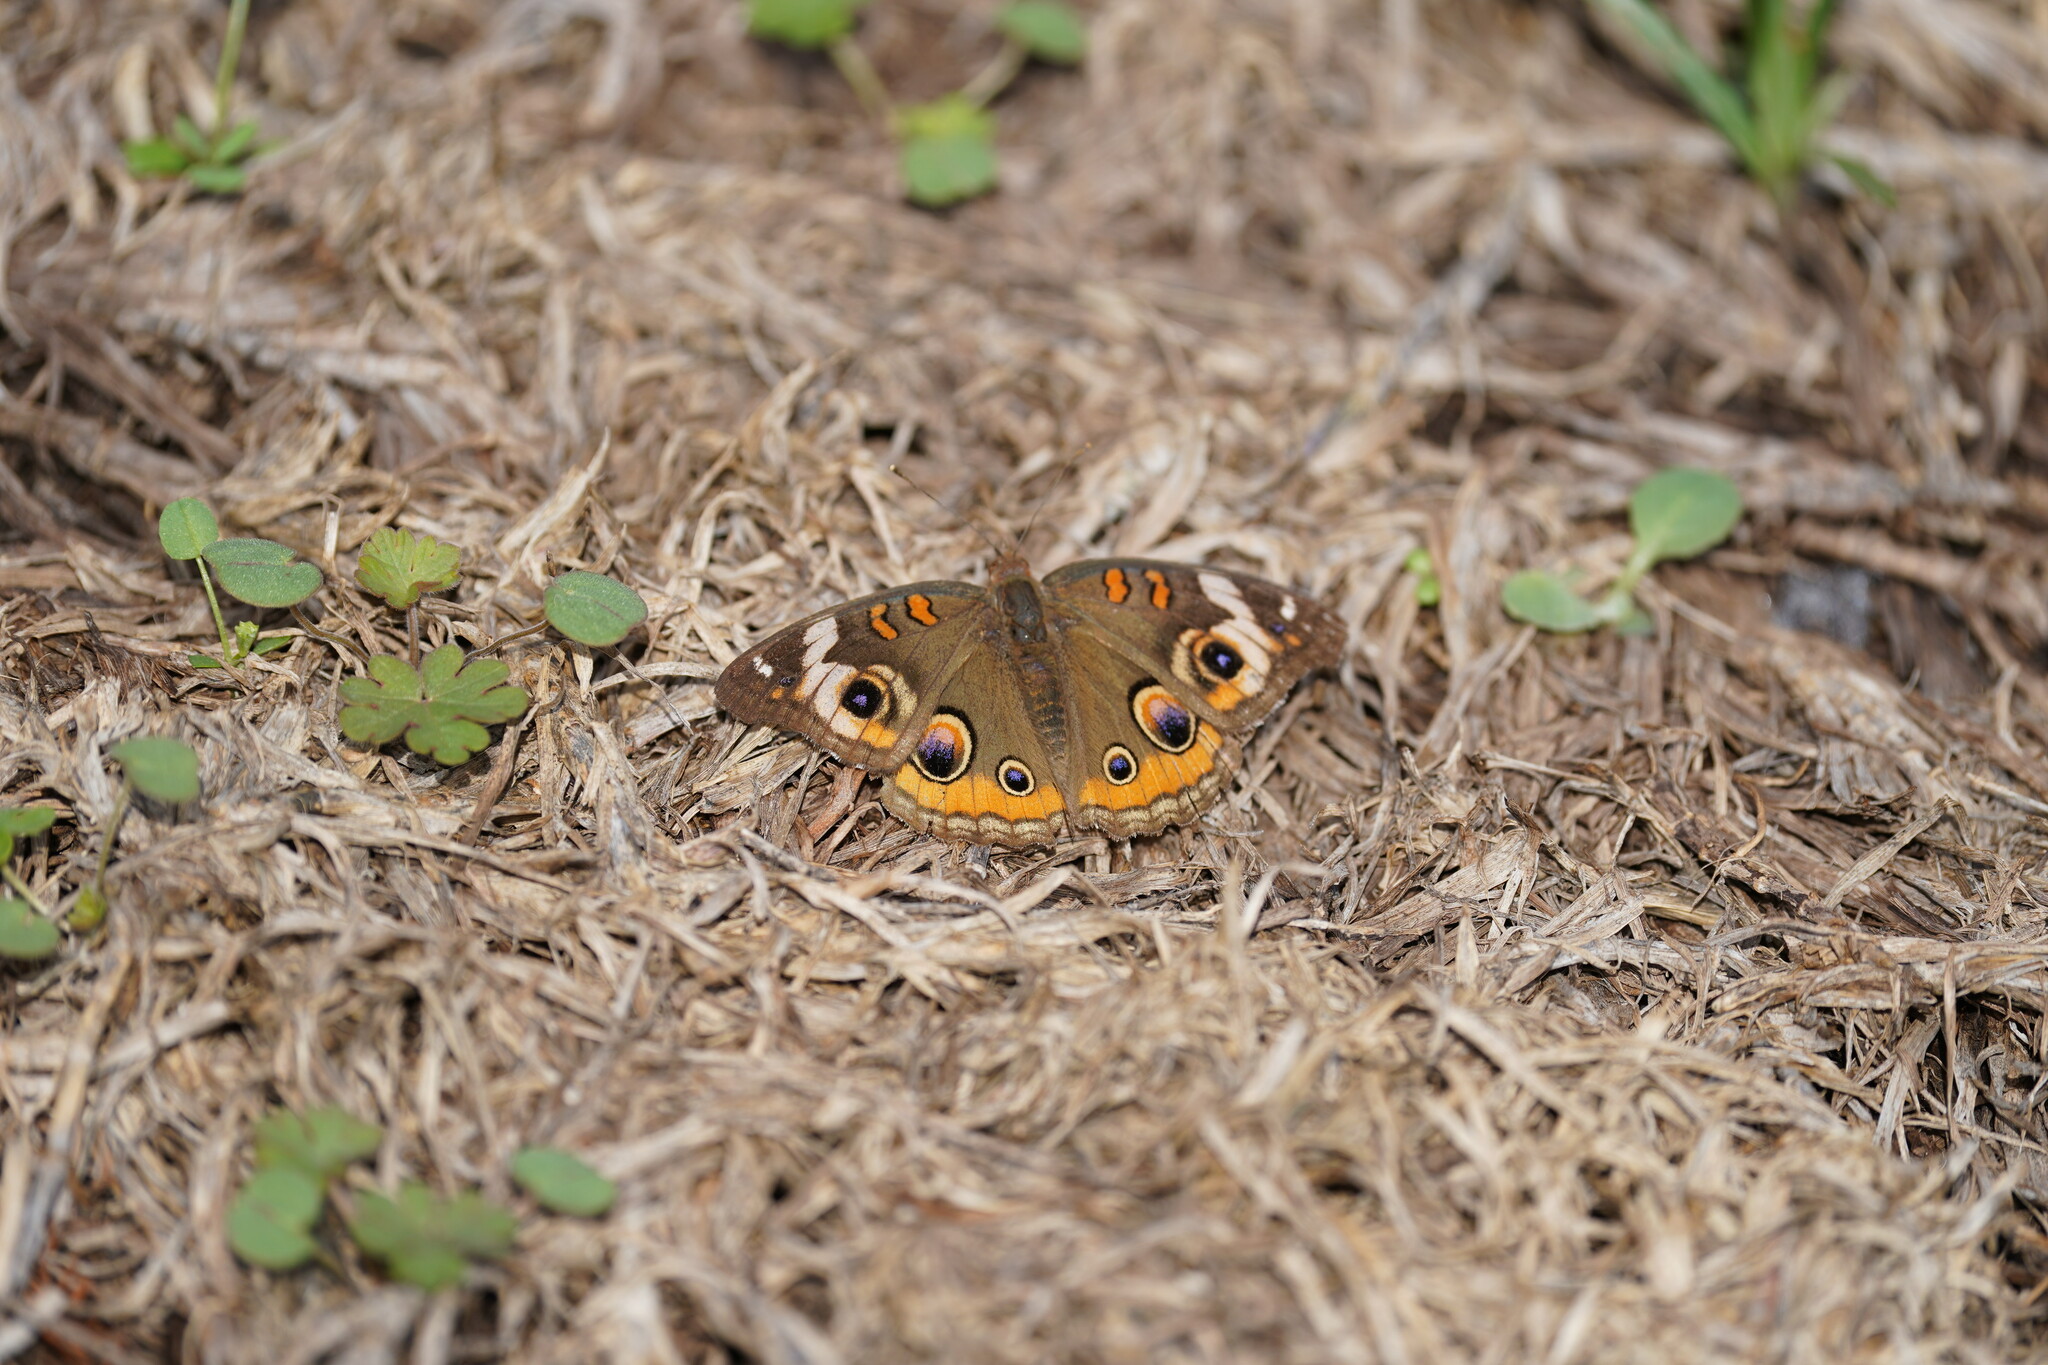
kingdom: Animalia
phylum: Arthropoda
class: Insecta
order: Lepidoptera
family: Nymphalidae
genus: Junonia
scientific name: Junonia coenia
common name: Common buckeye
